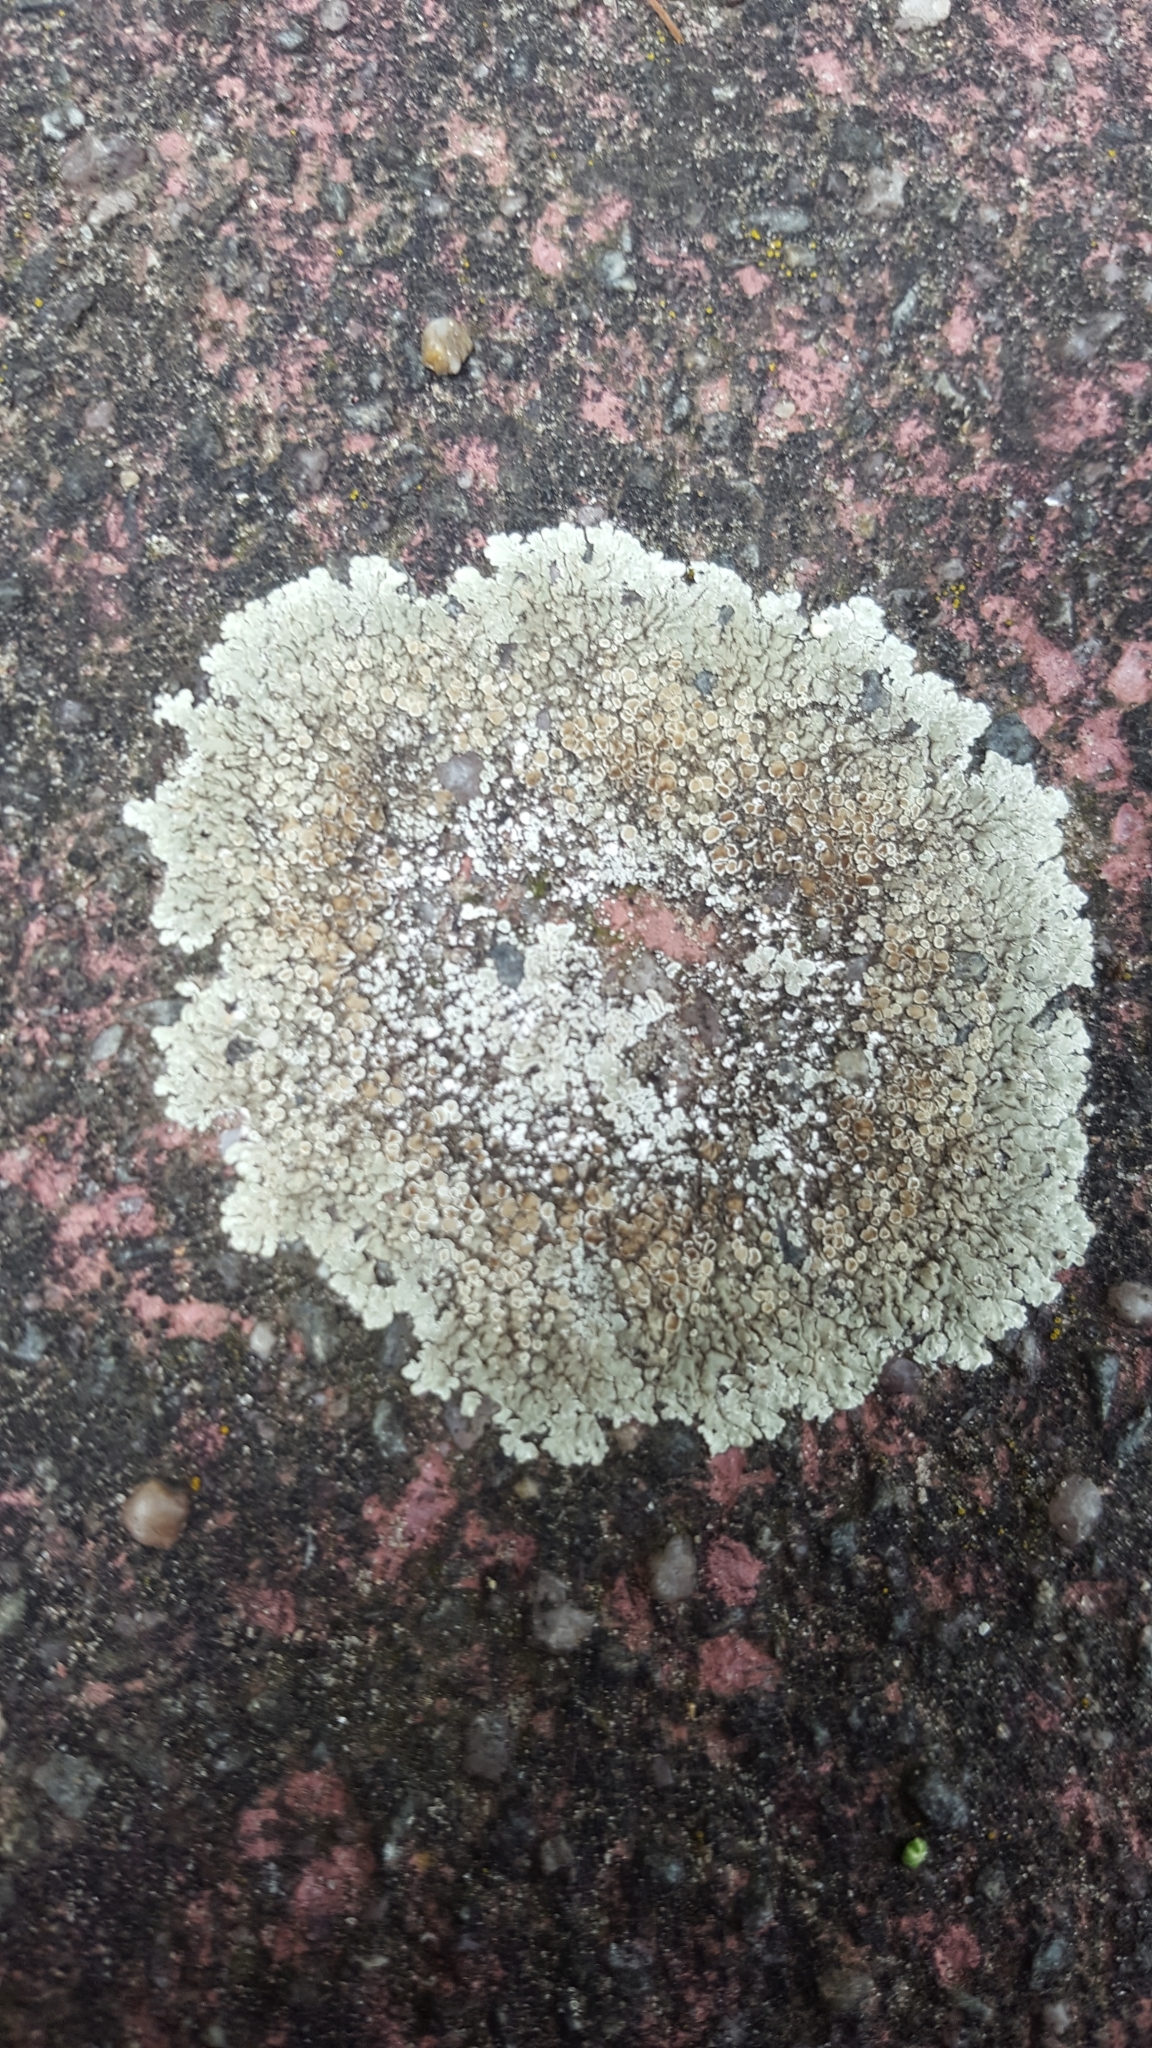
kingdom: Fungi
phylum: Ascomycota
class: Lecanoromycetes
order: Lecanorales
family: Lecanoraceae
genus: Protoparmeliopsis
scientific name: Protoparmeliopsis muralis
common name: Stonewall rim lichen
